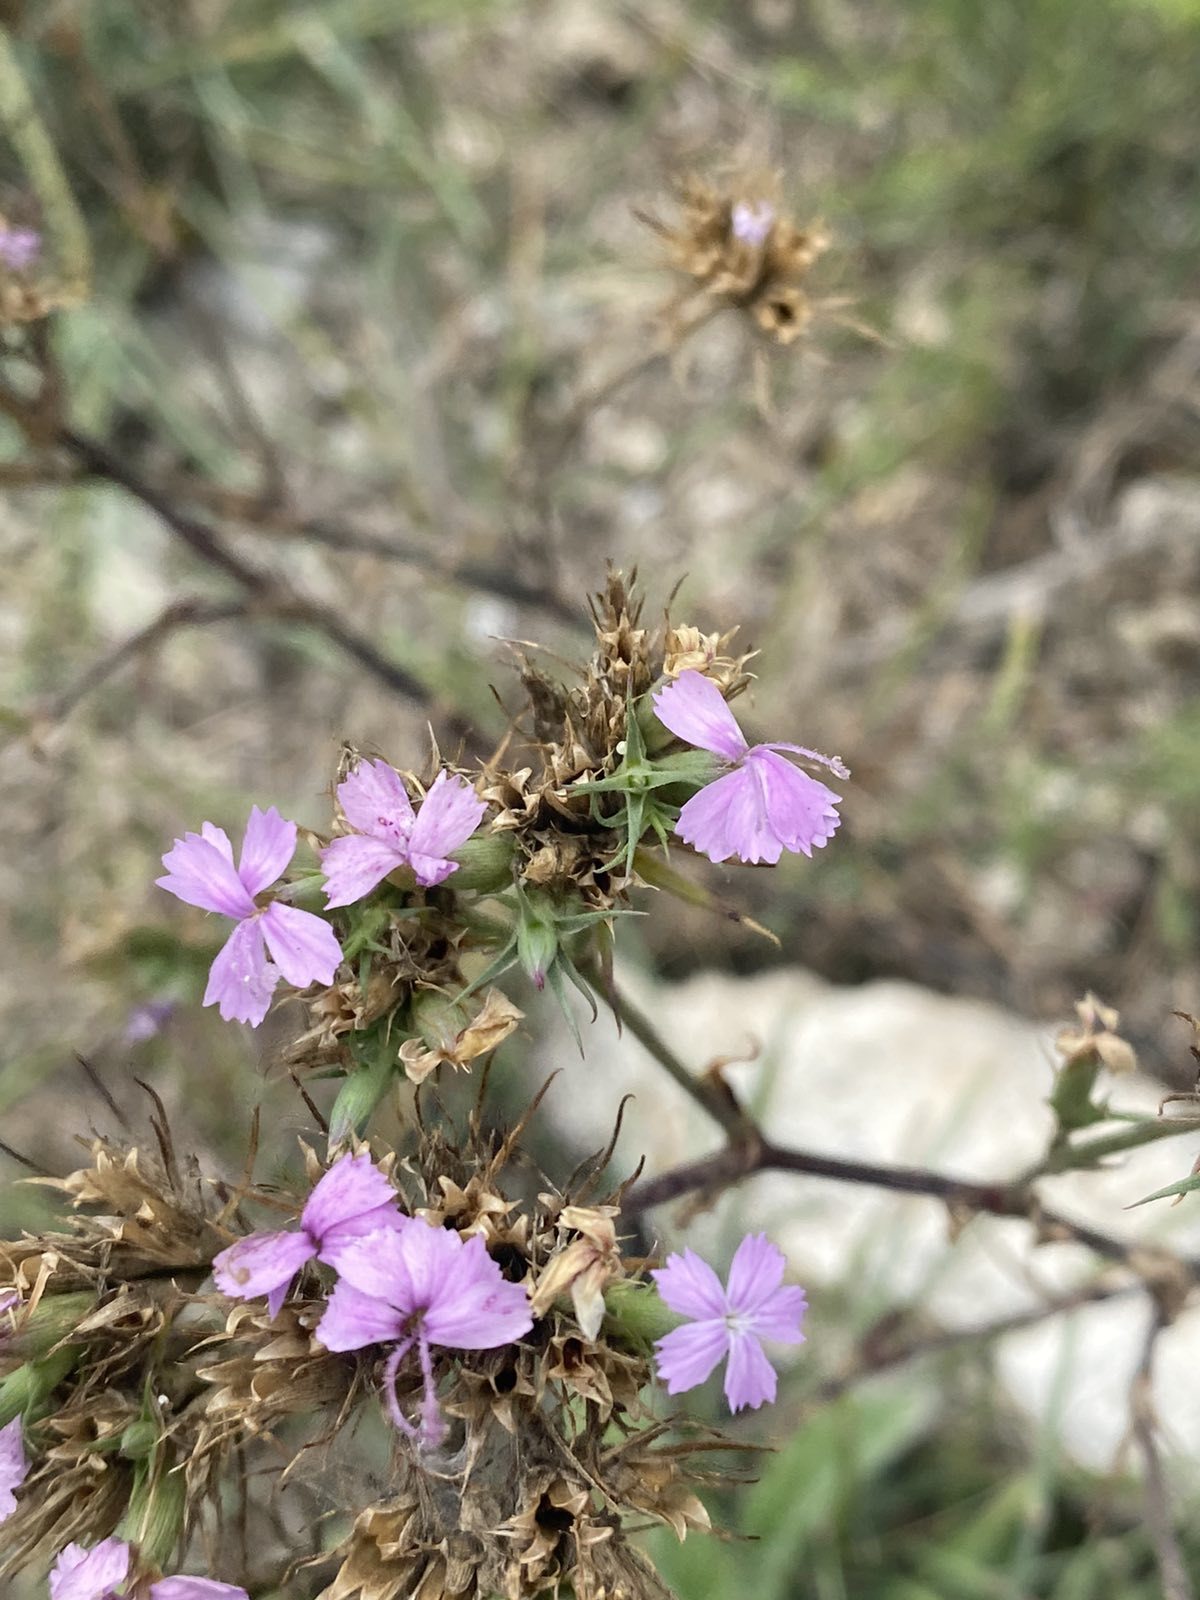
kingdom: Plantae
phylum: Tracheophyta
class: Magnoliopsida
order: Caryophyllales
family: Caryophyllaceae
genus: Dianthus
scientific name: Dianthus pseudarmeria
